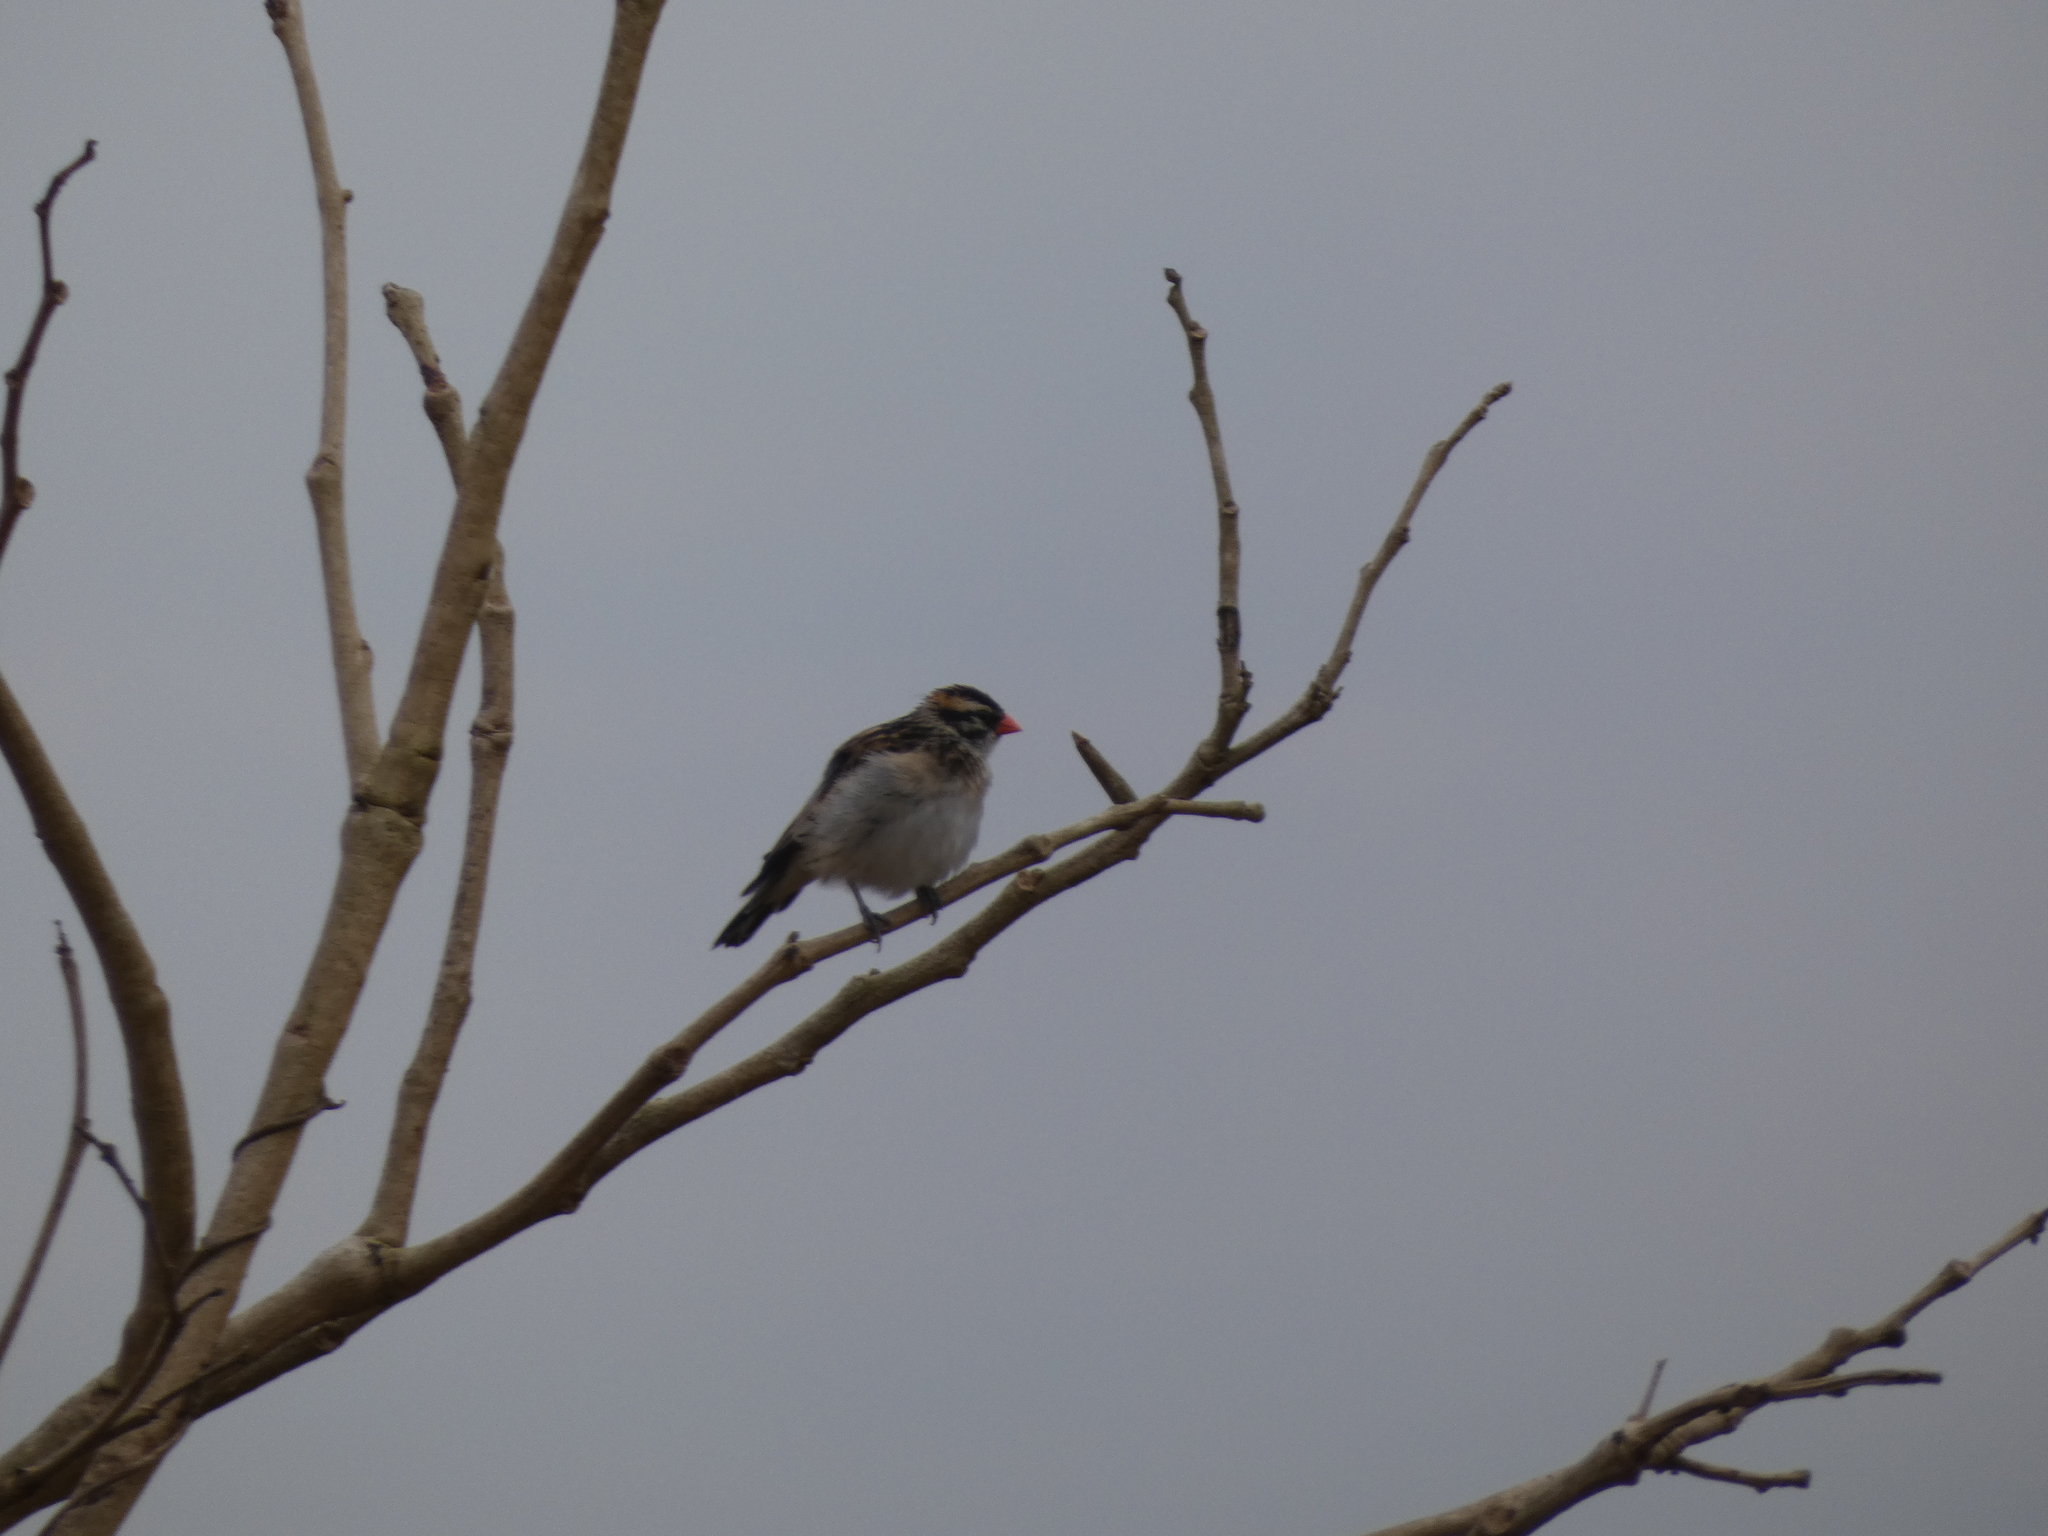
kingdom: Animalia
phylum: Chordata
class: Aves
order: Passeriformes
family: Viduidae
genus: Vidua
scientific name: Vidua macroura
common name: Pin-tailed whydah
